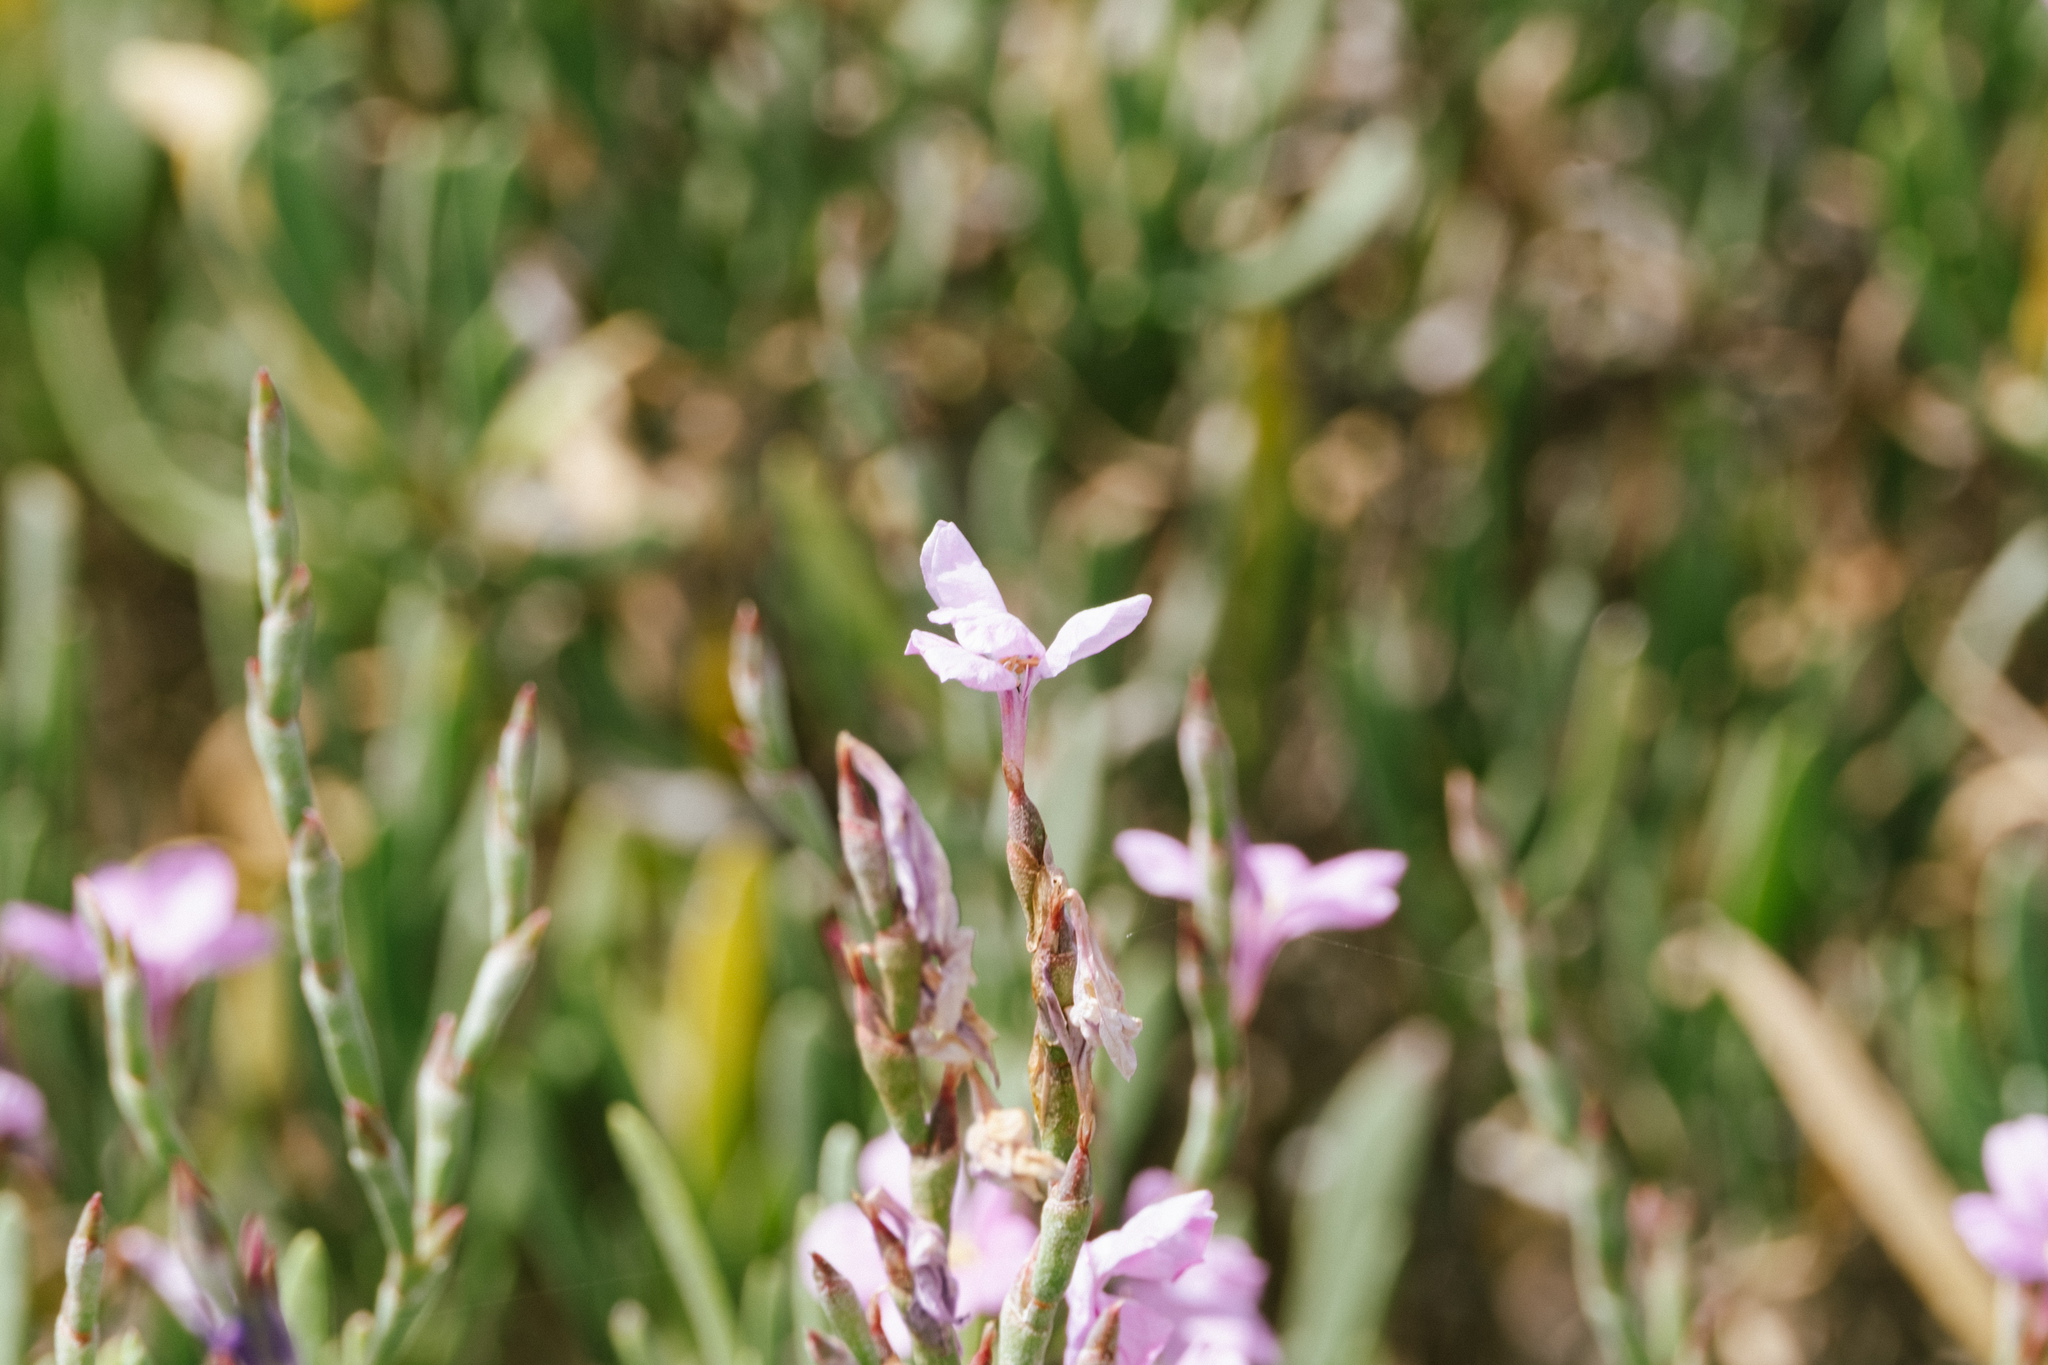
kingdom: Plantae
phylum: Tracheophyta
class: Magnoliopsida
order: Caryophyllales
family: Plumbaginaceae
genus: Limoniastrum
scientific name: Limoniastrum monopetalum
